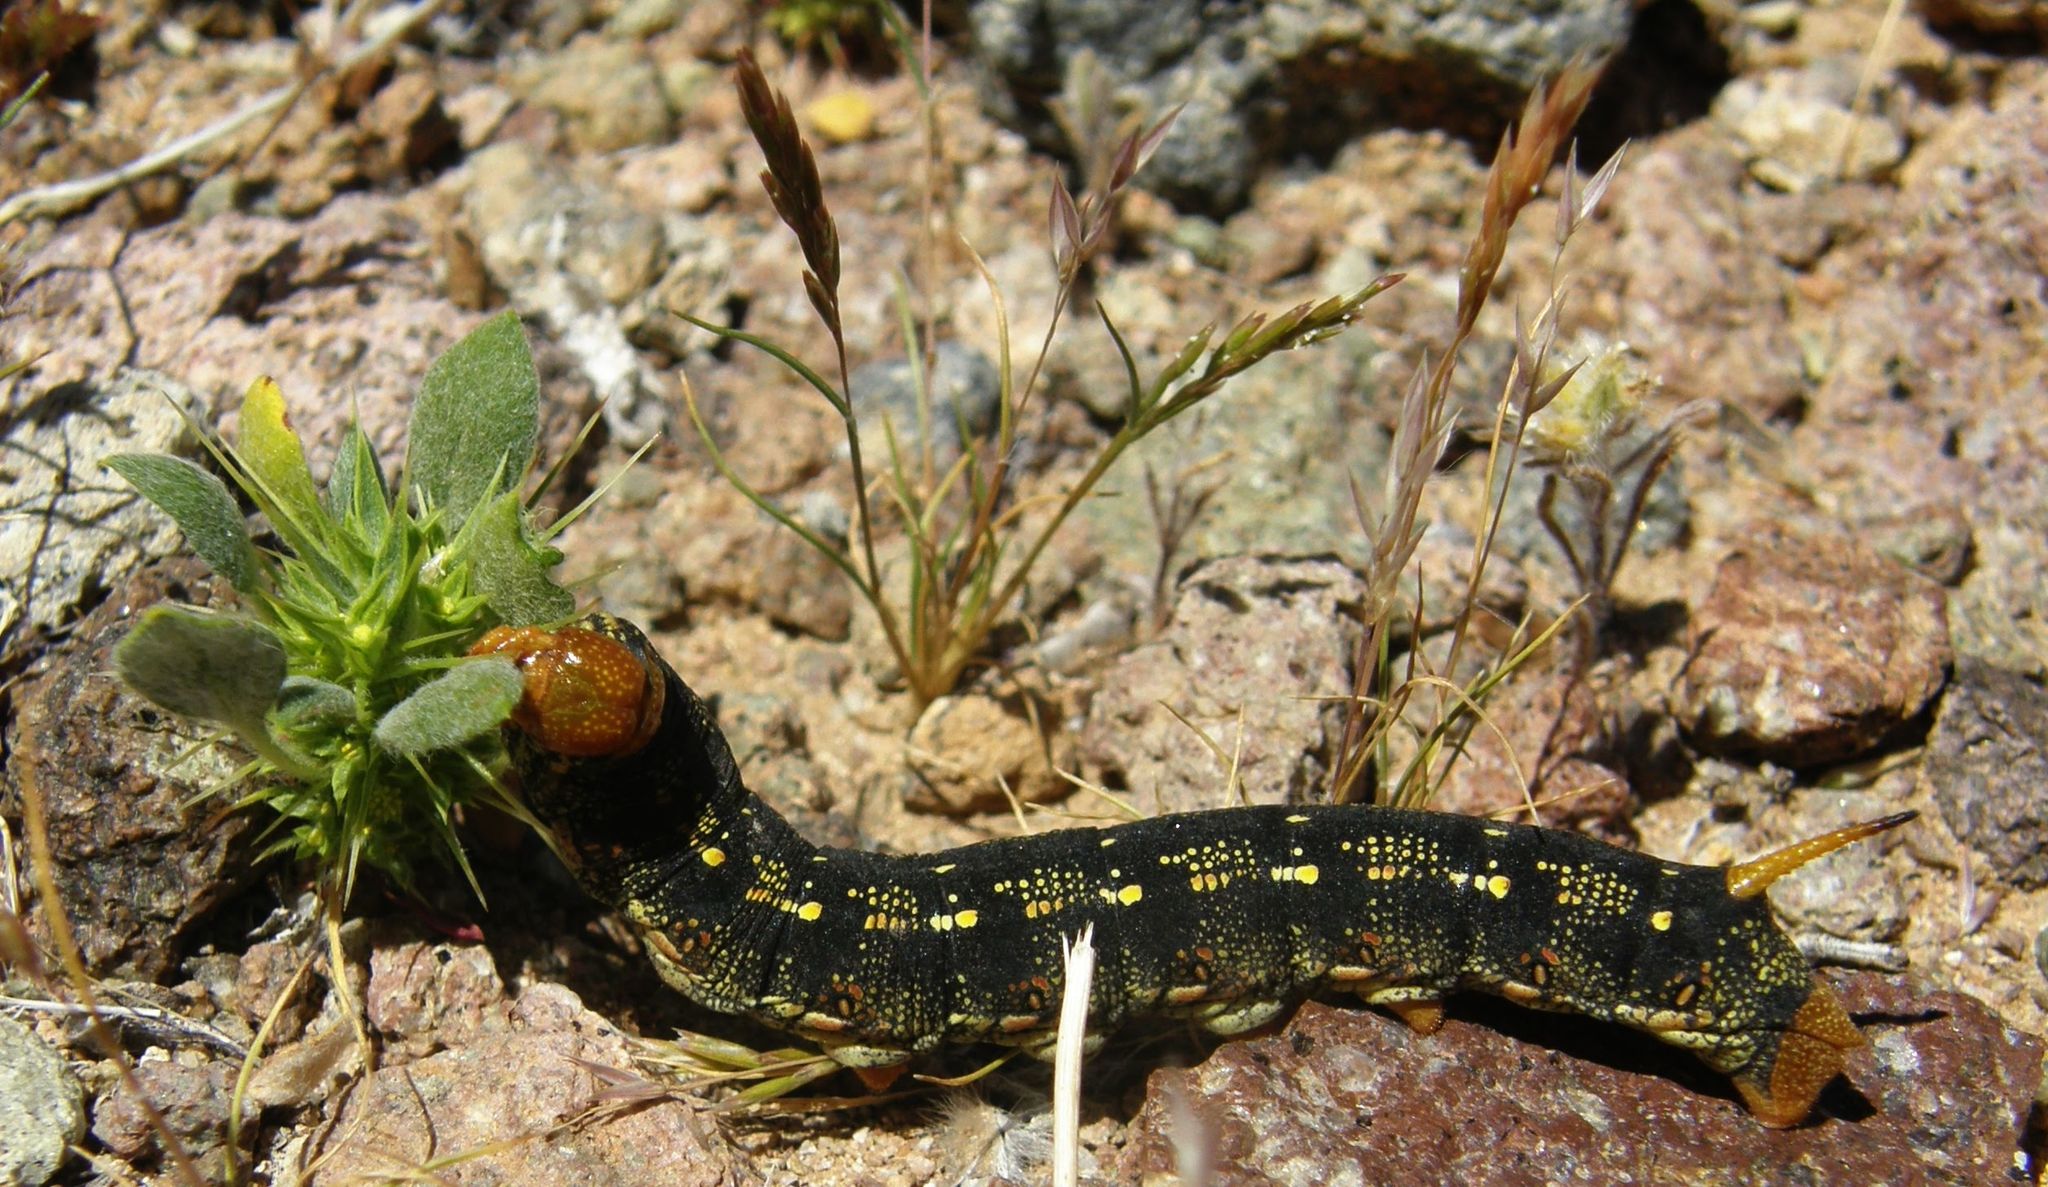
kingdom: Animalia
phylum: Arthropoda
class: Insecta
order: Lepidoptera
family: Sphingidae
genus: Hyles
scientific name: Hyles lineata
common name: White-lined sphinx
